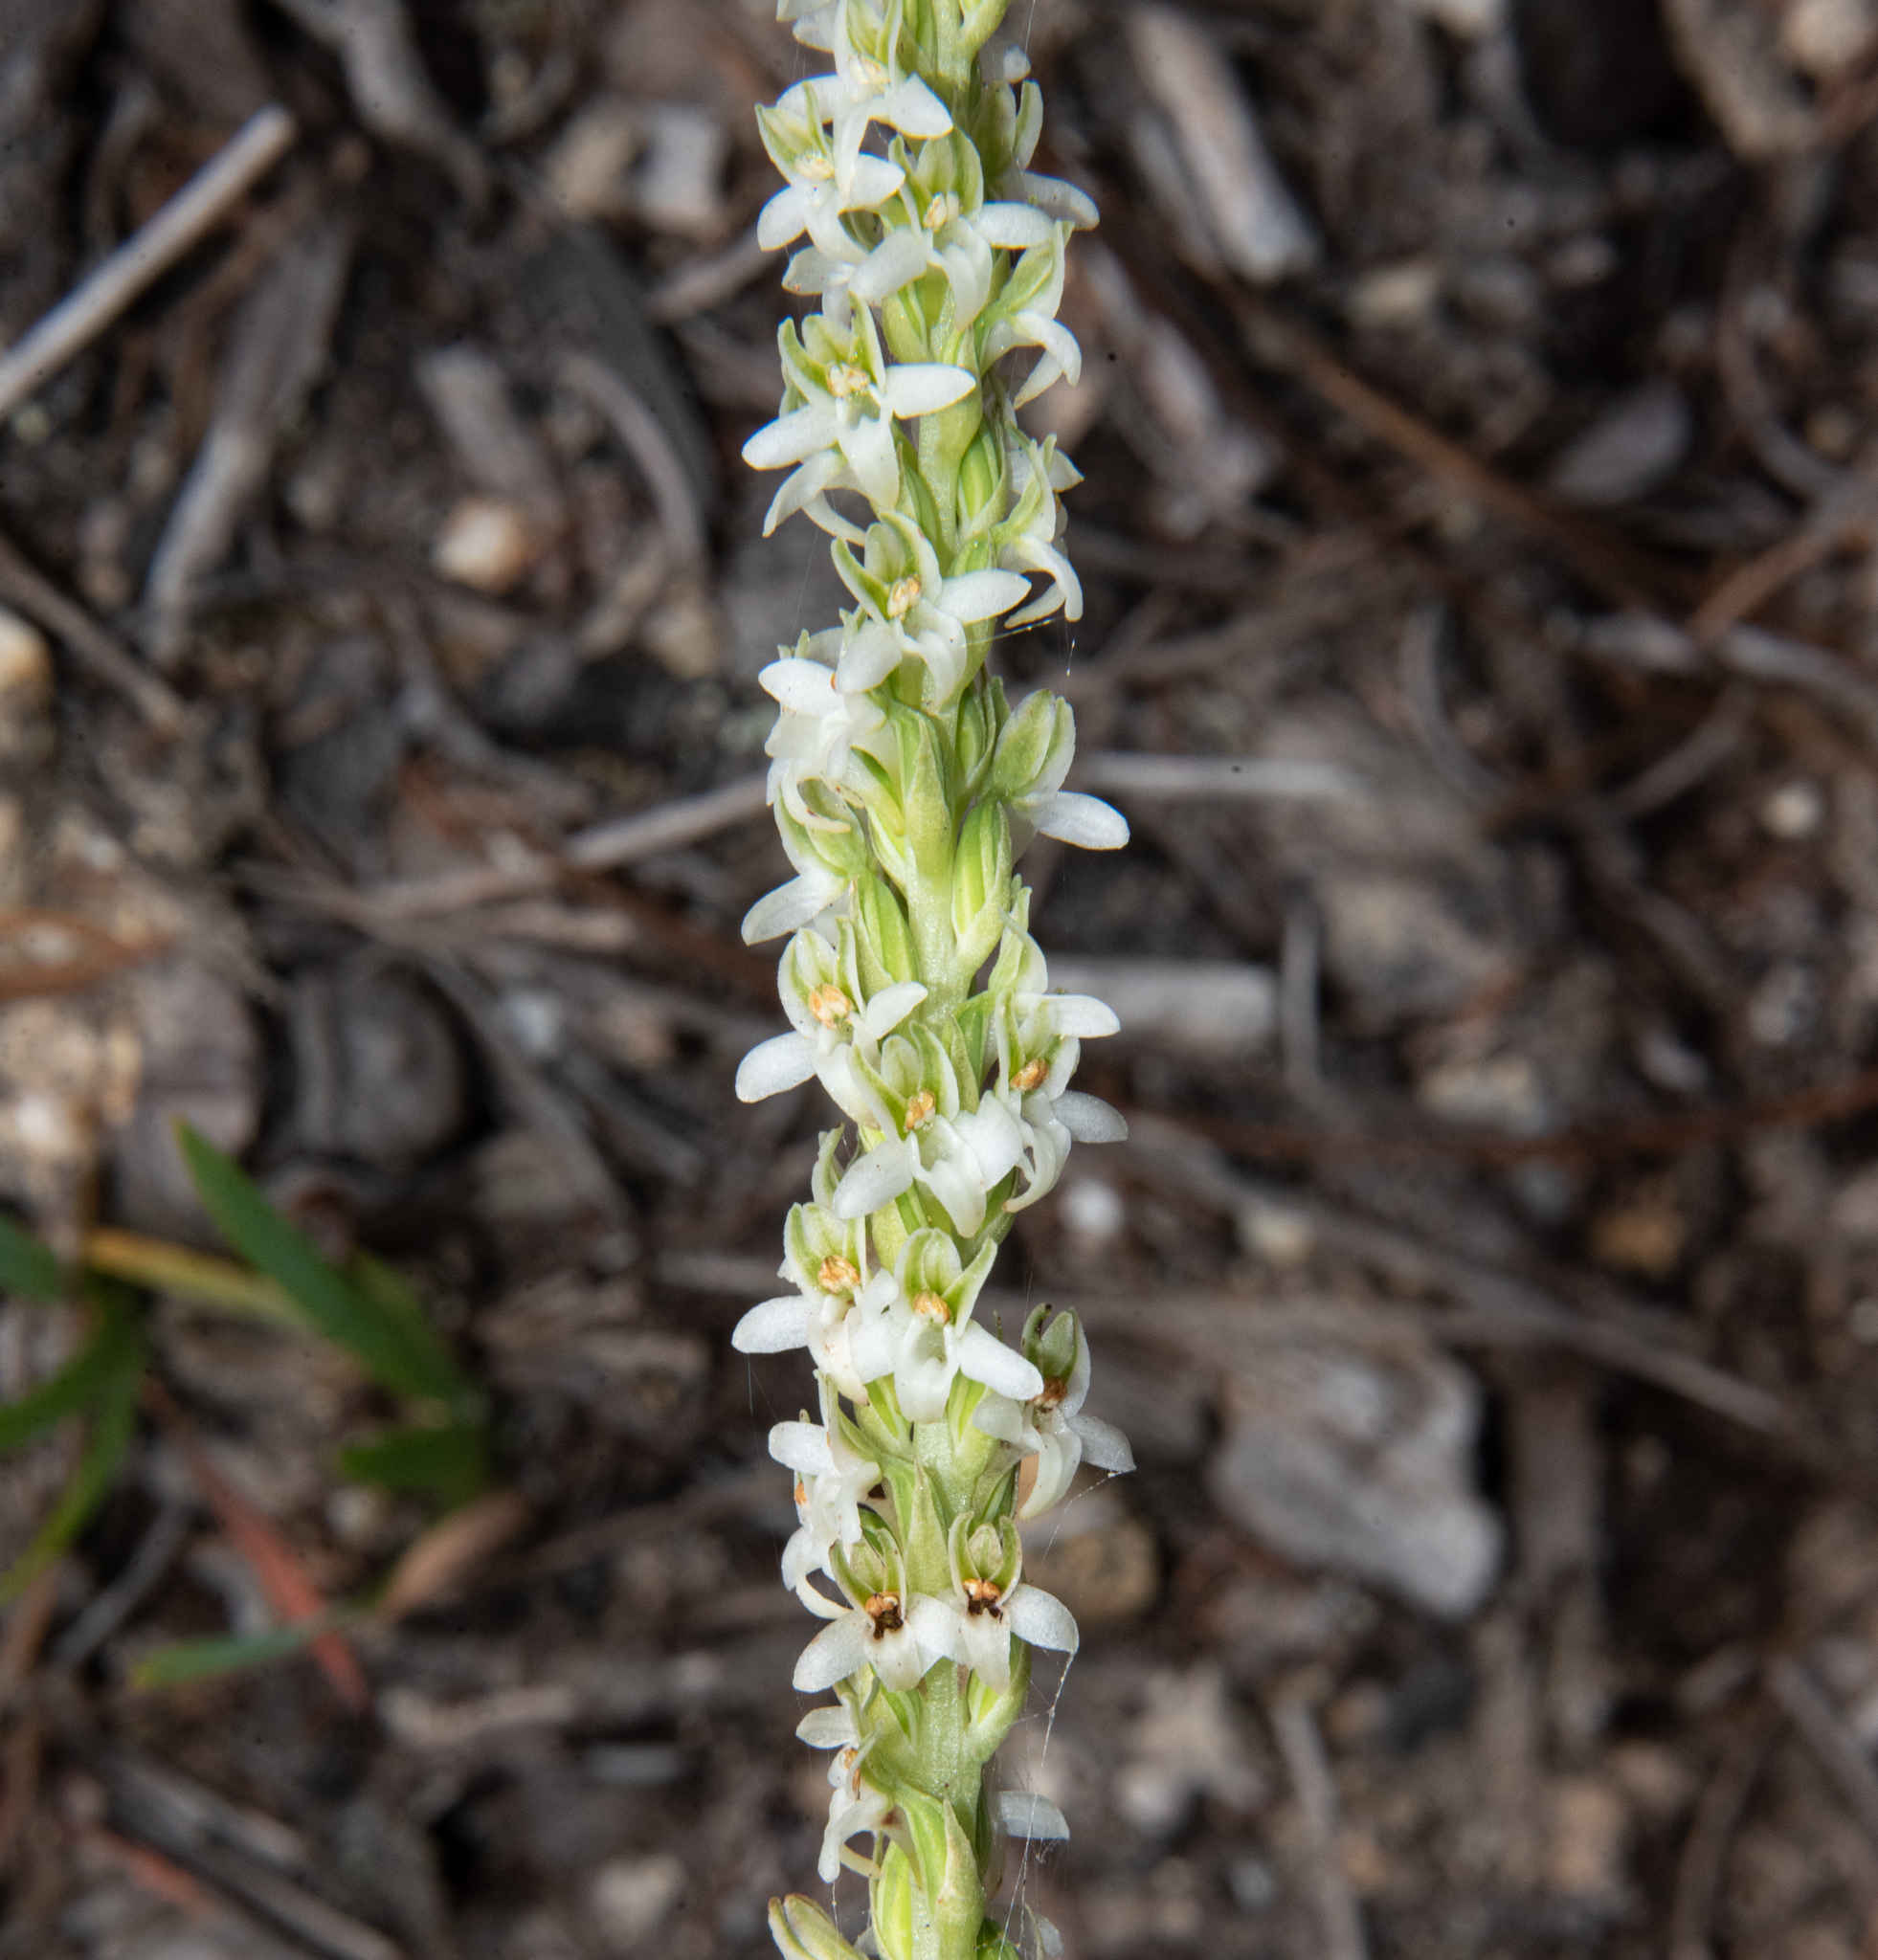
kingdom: Plantae
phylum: Tracheophyta
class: Liliopsida
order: Asparagales
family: Orchidaceae
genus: Platanthera
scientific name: Platanthera yadonii
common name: Yadon’s piperia
